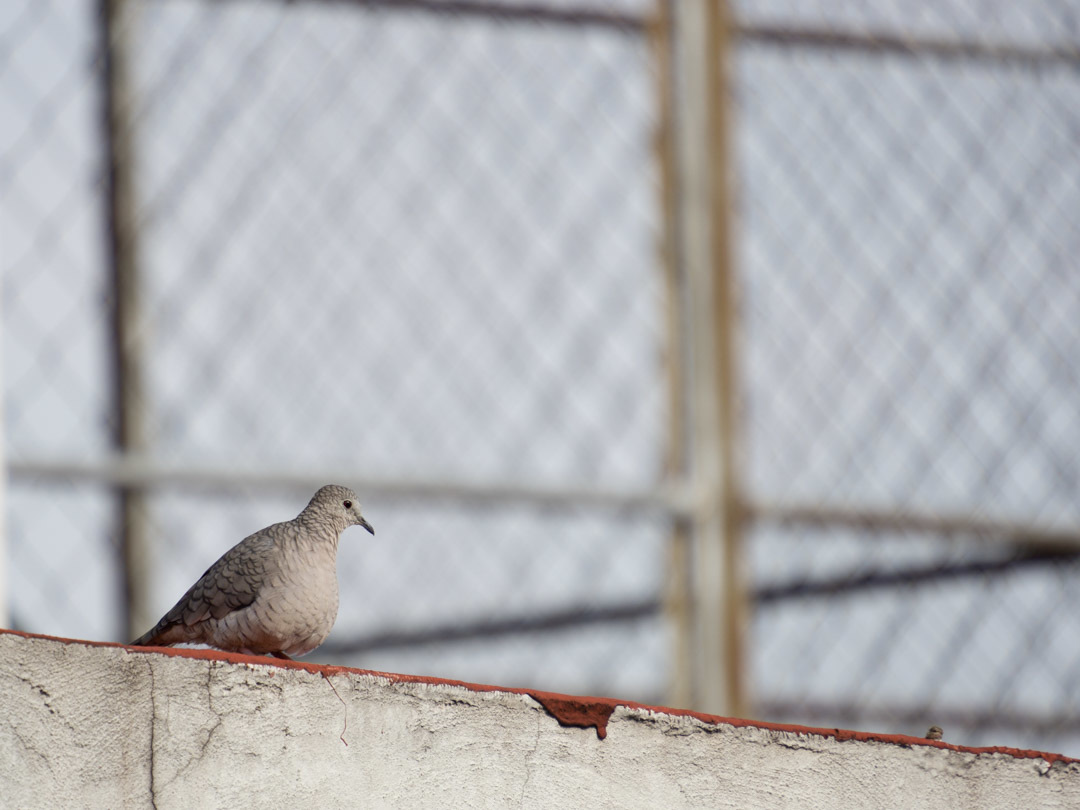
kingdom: Animalia
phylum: Chordata
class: Aves
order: Columbiformes
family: Columbidae
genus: Columbina
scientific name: Columbina inca
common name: Inca dove
